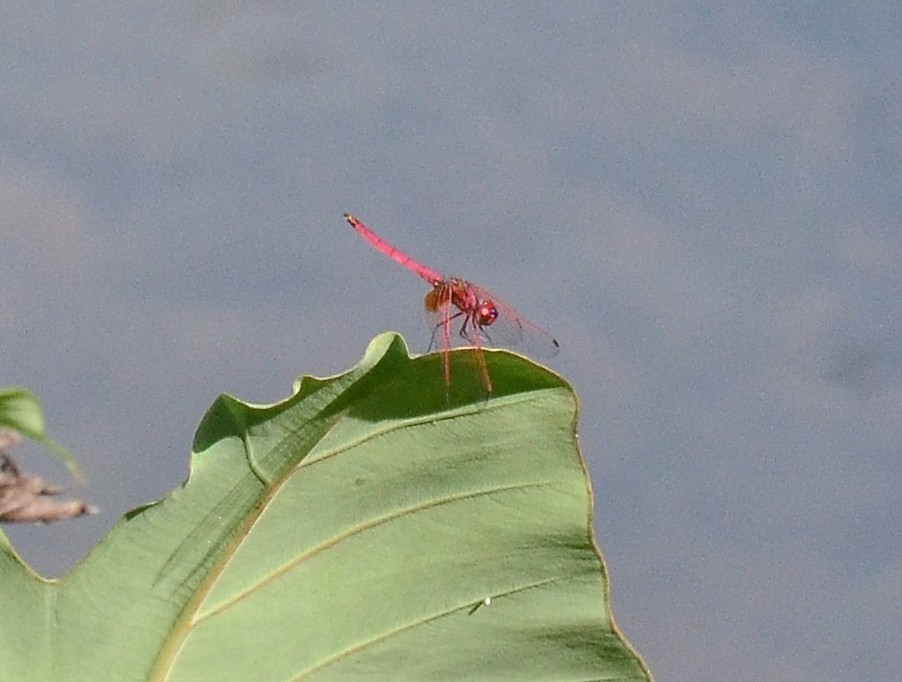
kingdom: Animalia
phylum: Arthropoda
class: Insecta
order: Odonata
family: Libellulidae
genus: Trithemis
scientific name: Trithemis aurora
